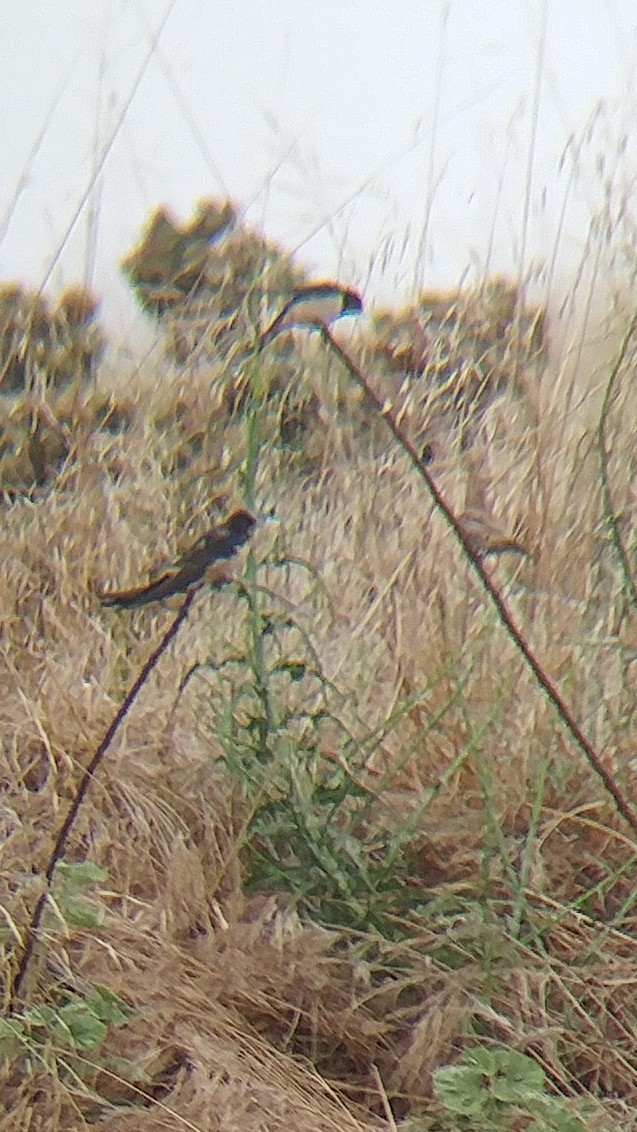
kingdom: Animalia
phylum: Chordata
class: Aves
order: Passeriformes
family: Hirundinidae
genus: Hirundo
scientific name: Hirundo rustica
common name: Barn swallow
